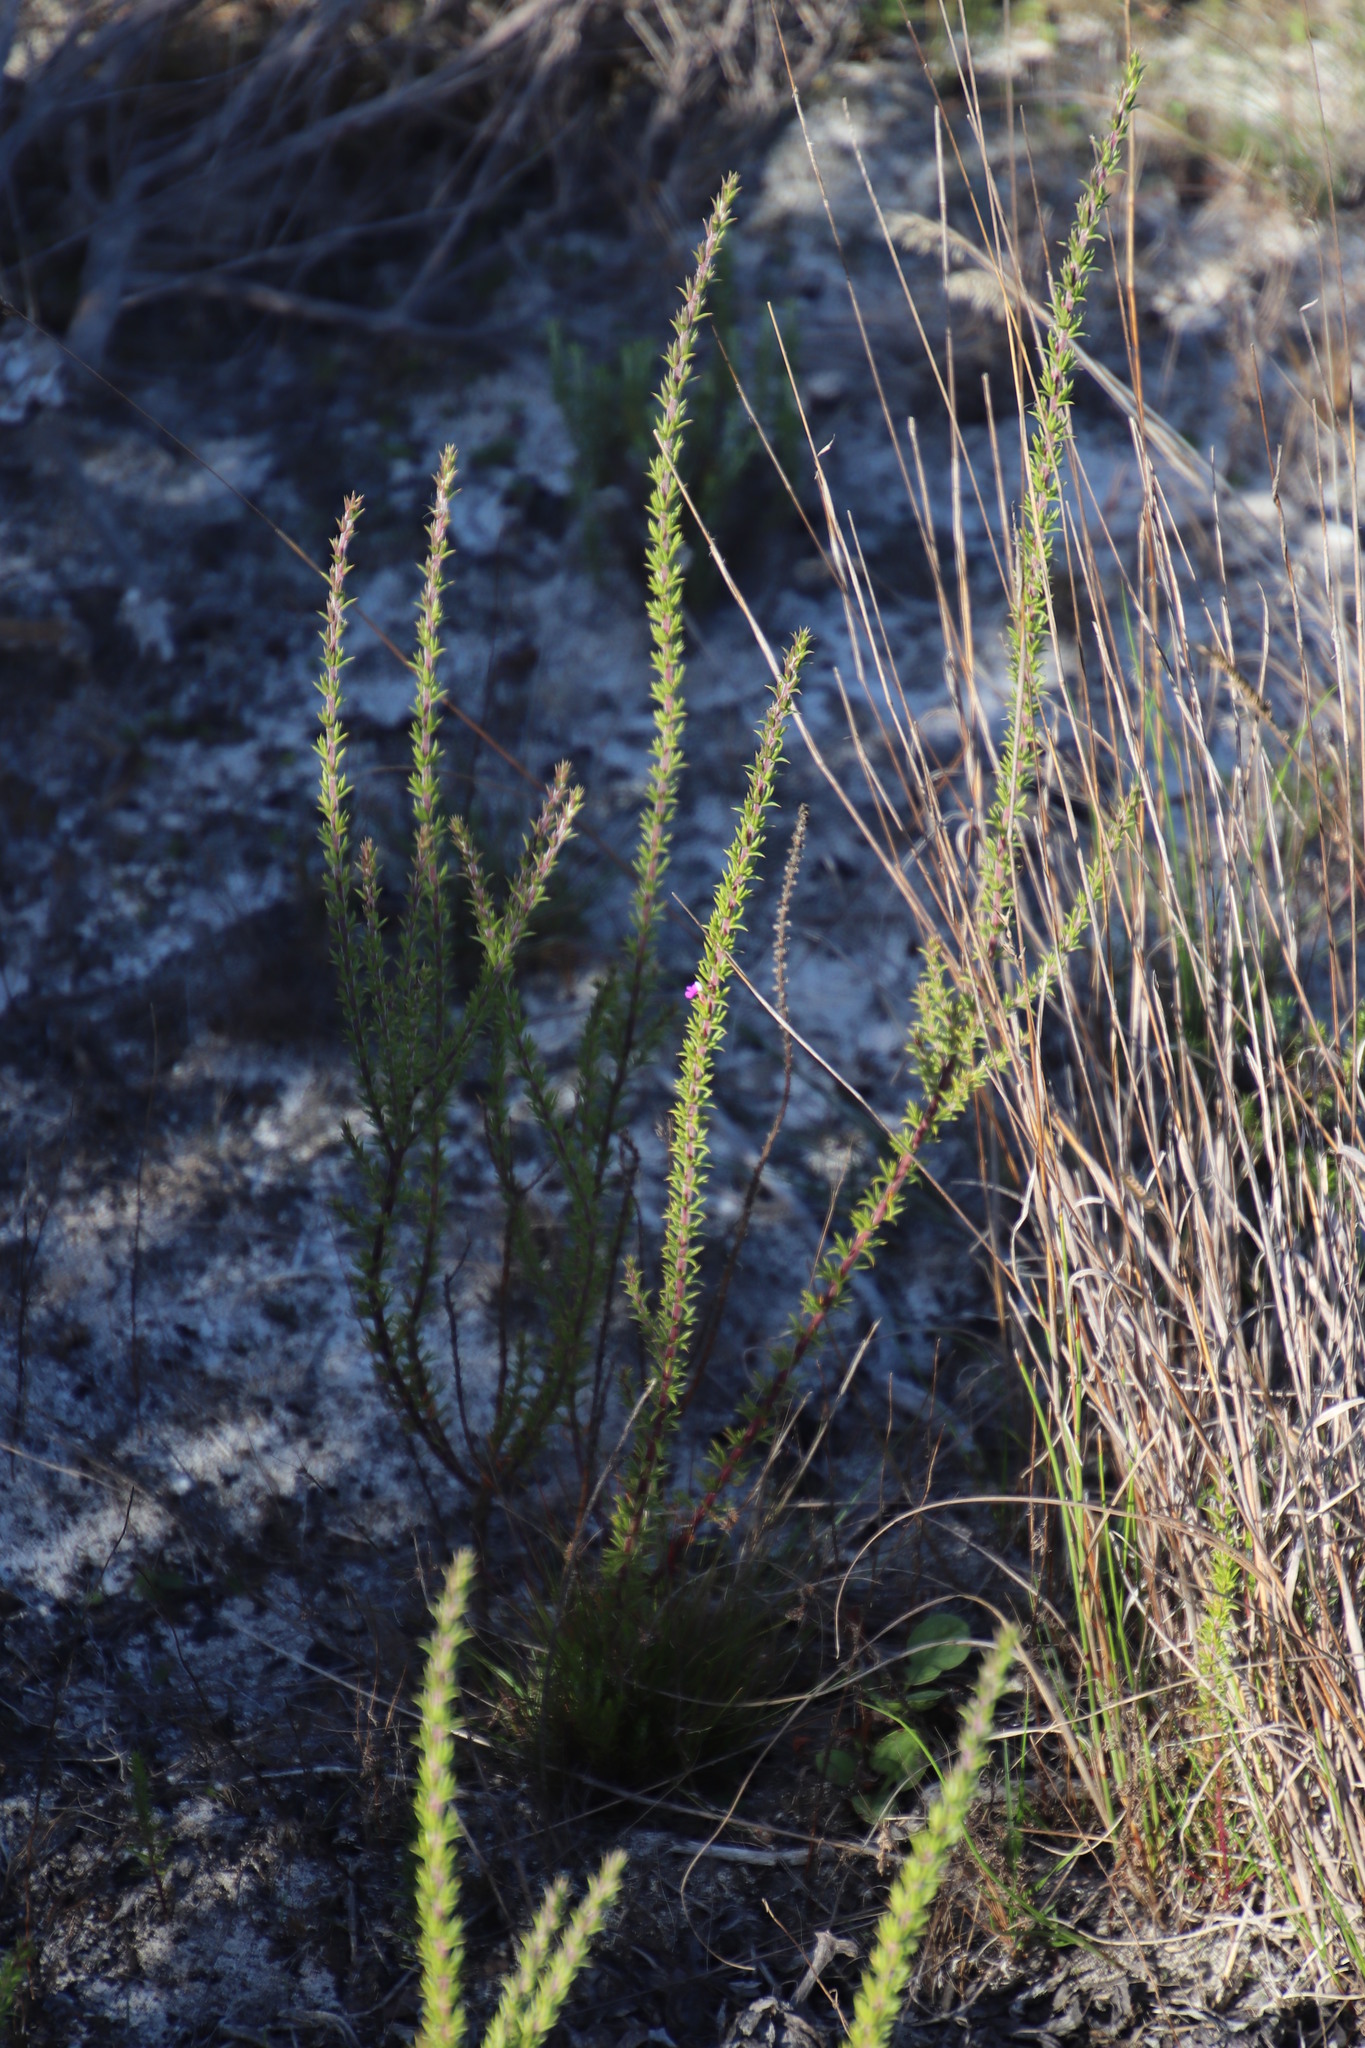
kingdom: Plantae
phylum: Tracheophyta
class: Magnoliopsida
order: Fabales
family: Polygalaceae
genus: Muraltia
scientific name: Muraltia heisteria
